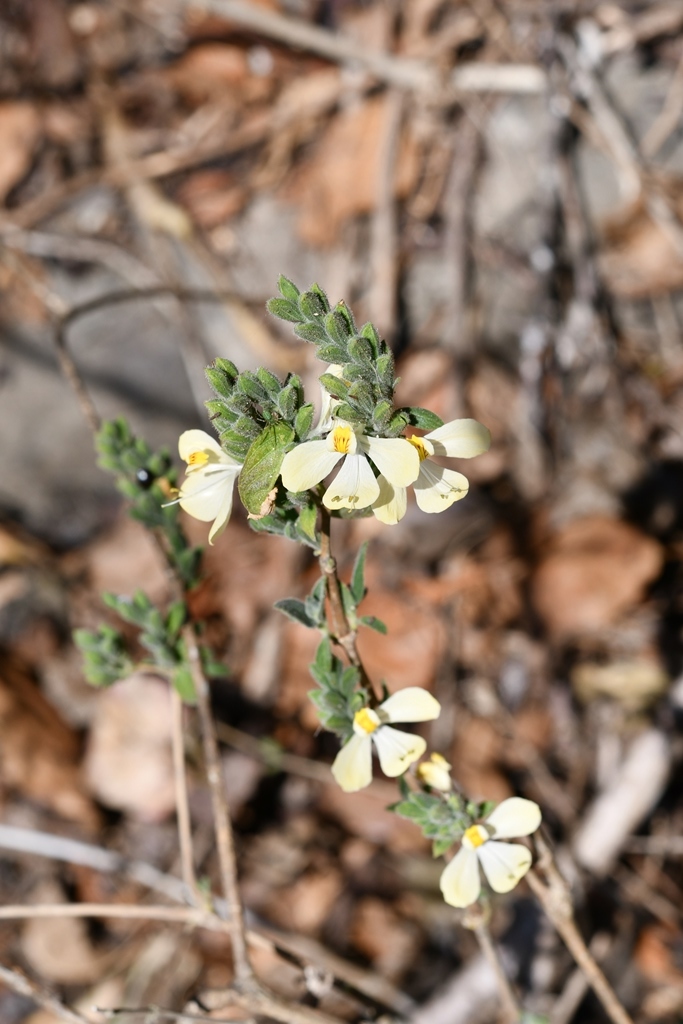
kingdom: Plantae
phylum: Tracheophyta
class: Magnoliopsida
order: Lamiales
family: Acanthaceae
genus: Henrya
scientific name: Henrya insularis
